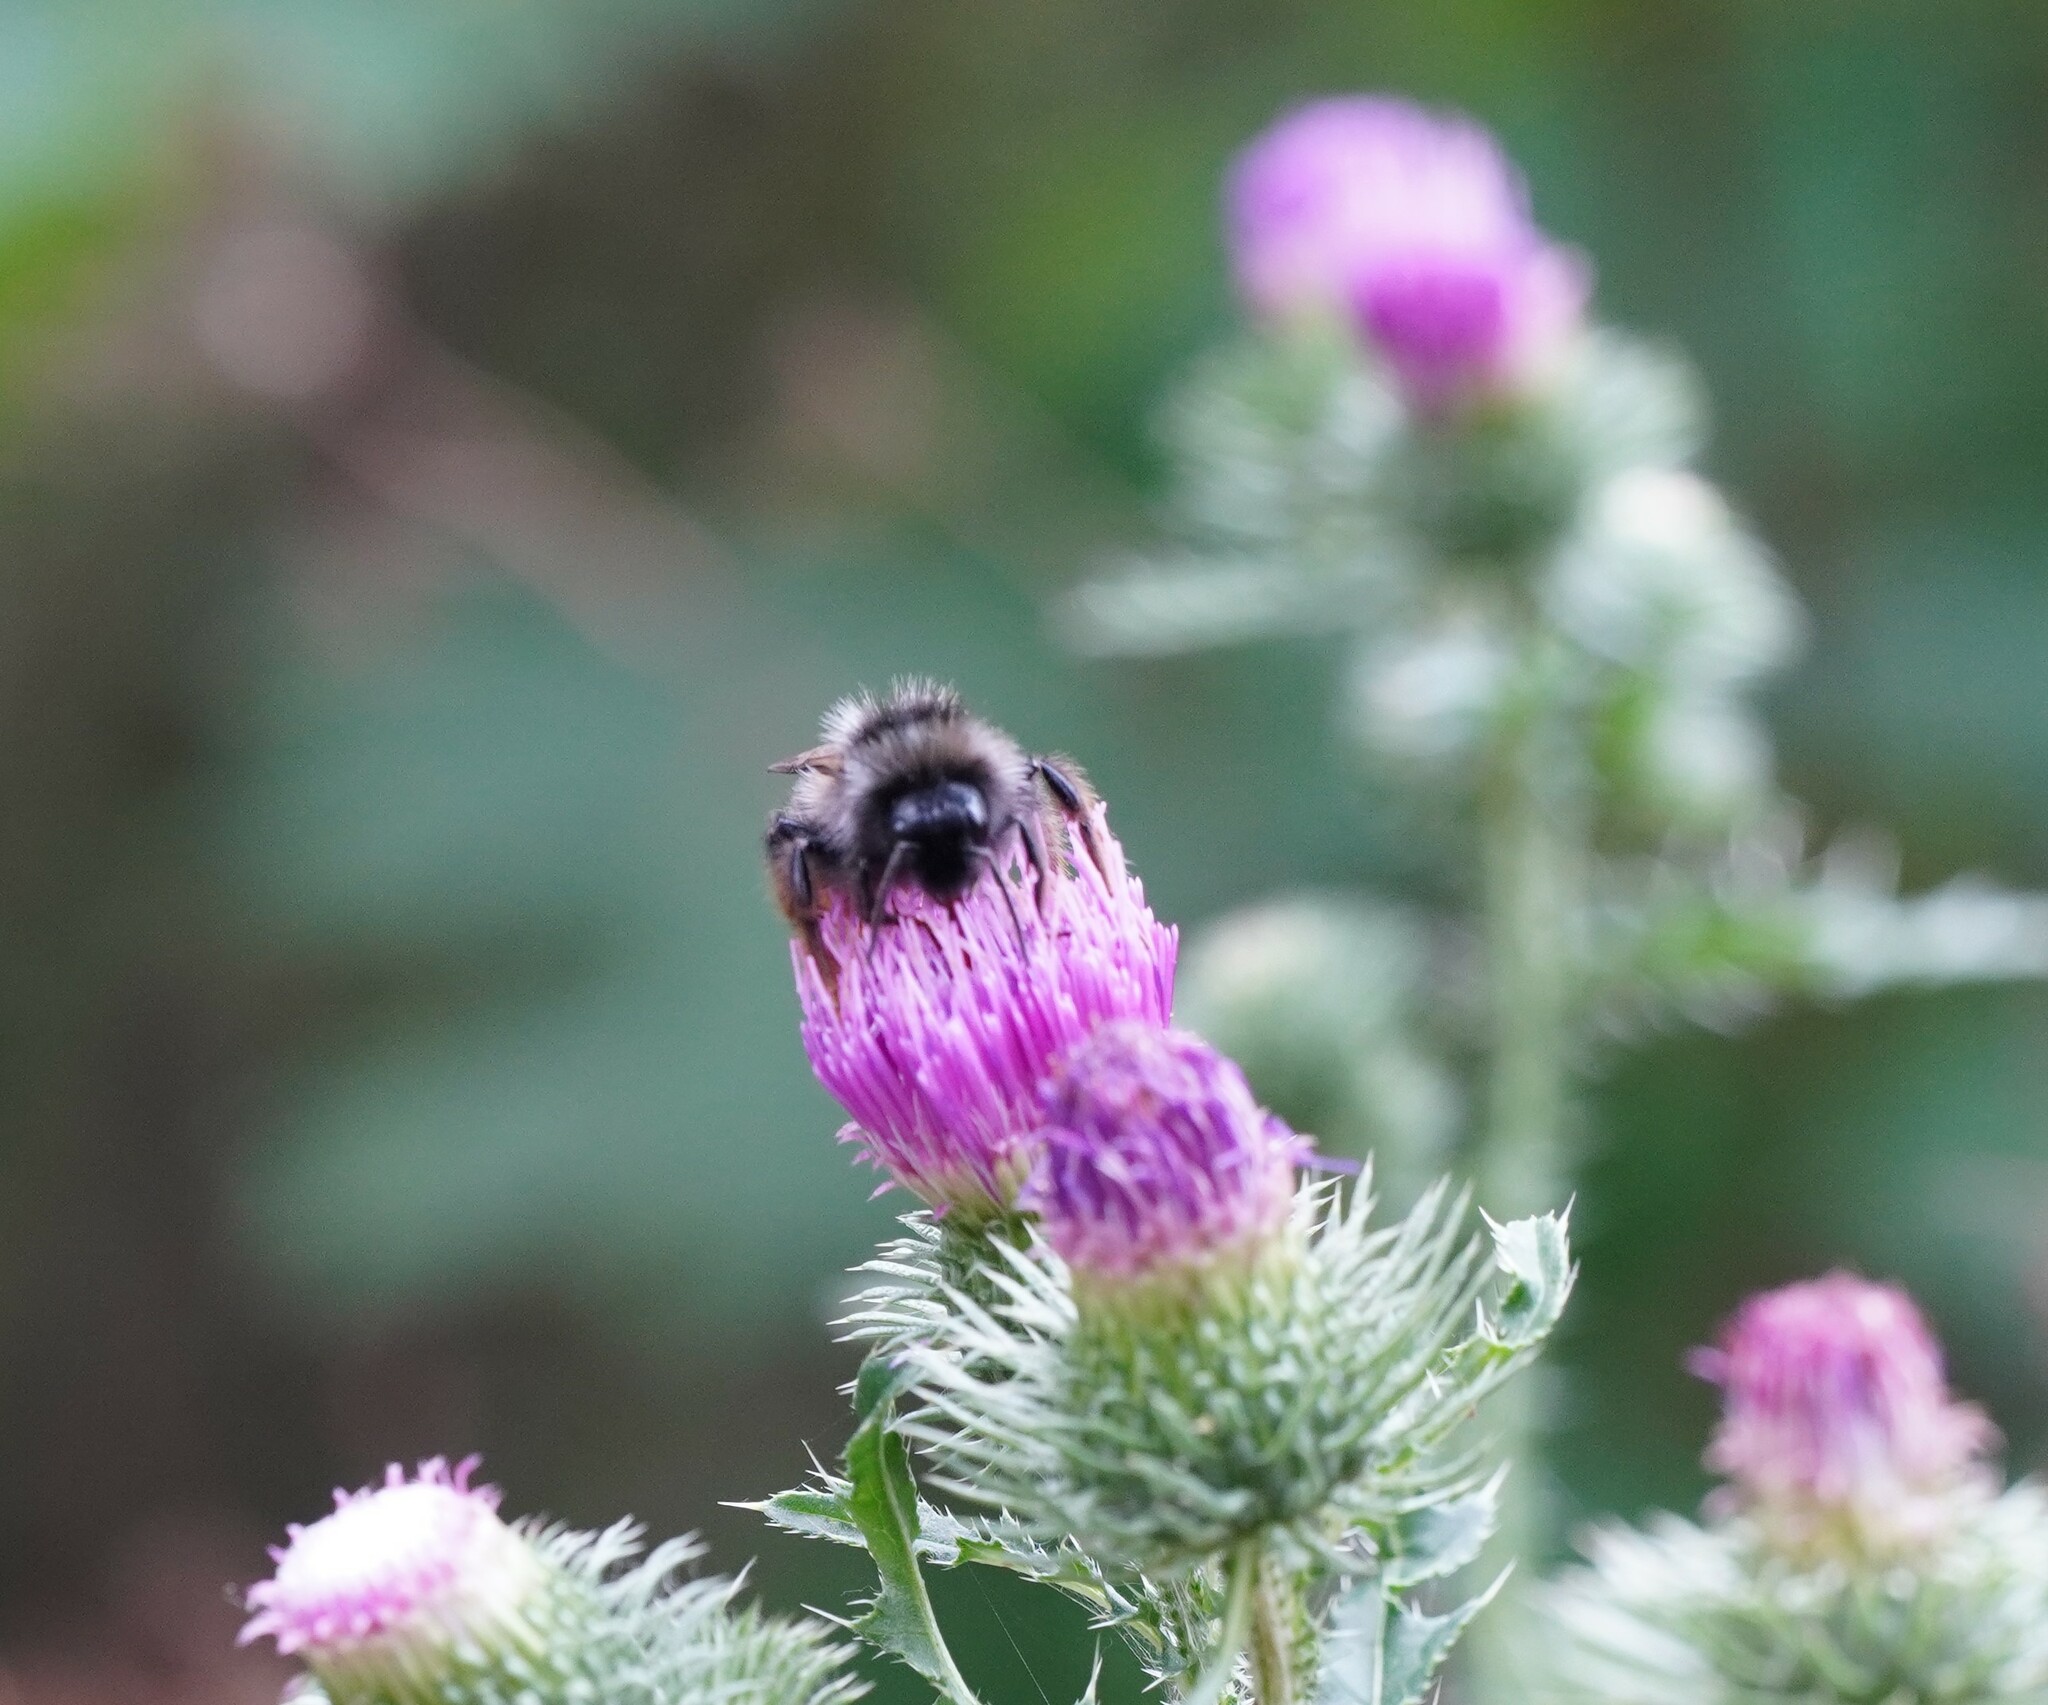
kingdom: Animalia
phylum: Arthropoda
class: Insecta
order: Hymenoptera
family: Apidae
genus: Bombus
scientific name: Bombus rupestris
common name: Hill cuckoo-bee
